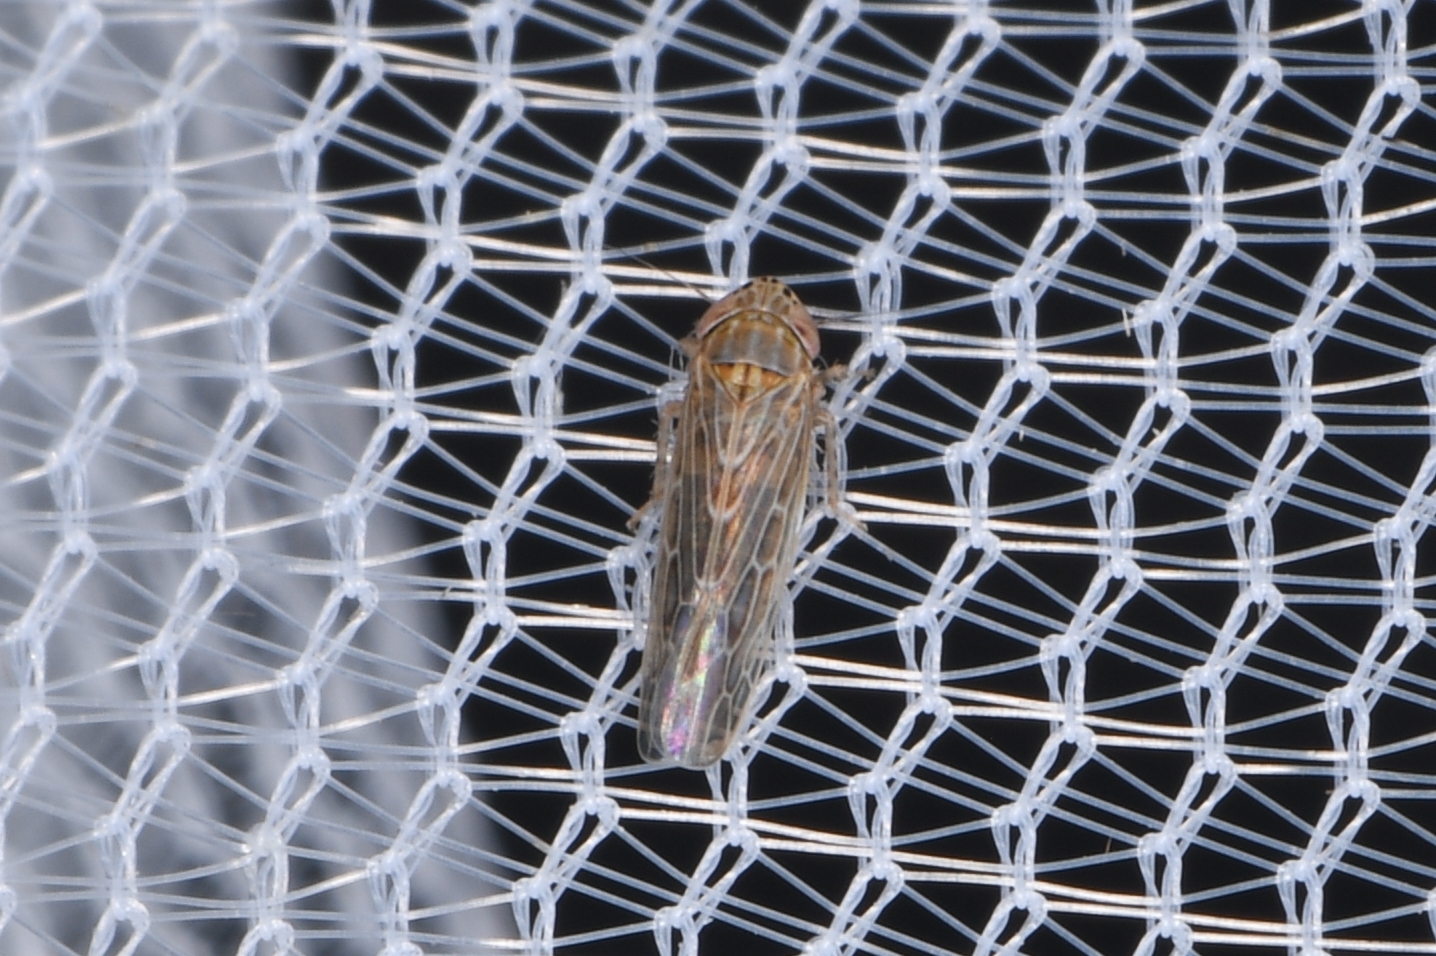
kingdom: Animalia
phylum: Arthropoda
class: Insecta
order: Hemiptera
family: Cicadellidae
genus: Graminella
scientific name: Graminella sonora
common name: Lesser lawn leafhopper
